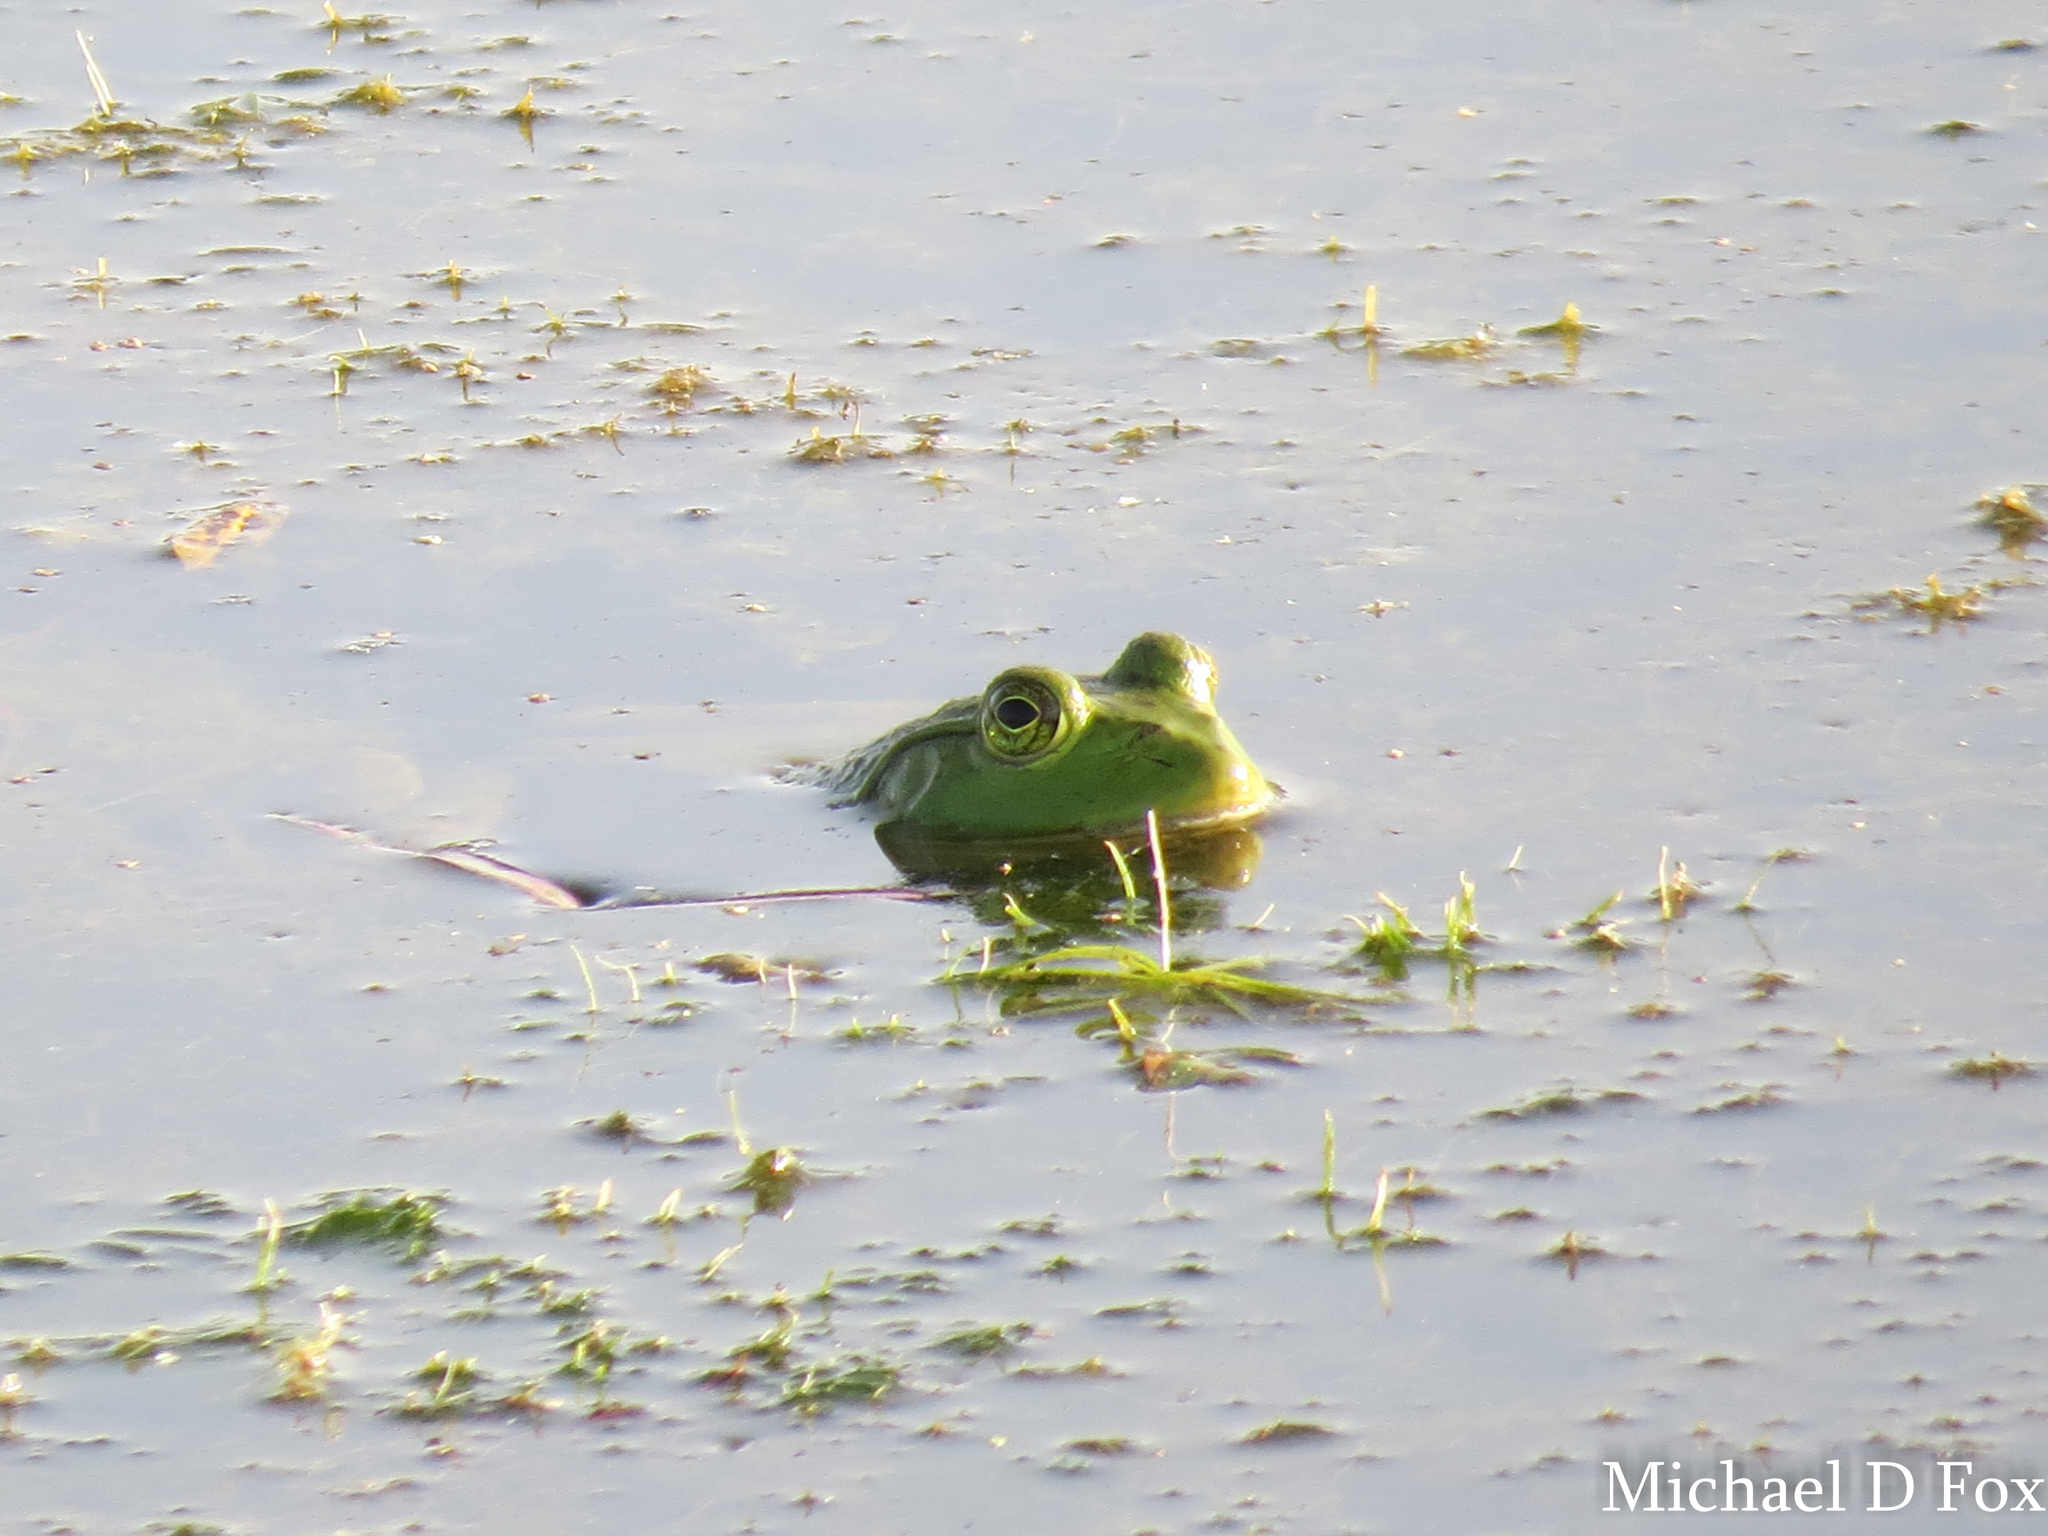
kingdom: Animalia
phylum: Chordata
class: Amphibia
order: Anura
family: Ranidae
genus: Lithobates
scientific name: Lithobates catesbeianus
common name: American bullfrog
